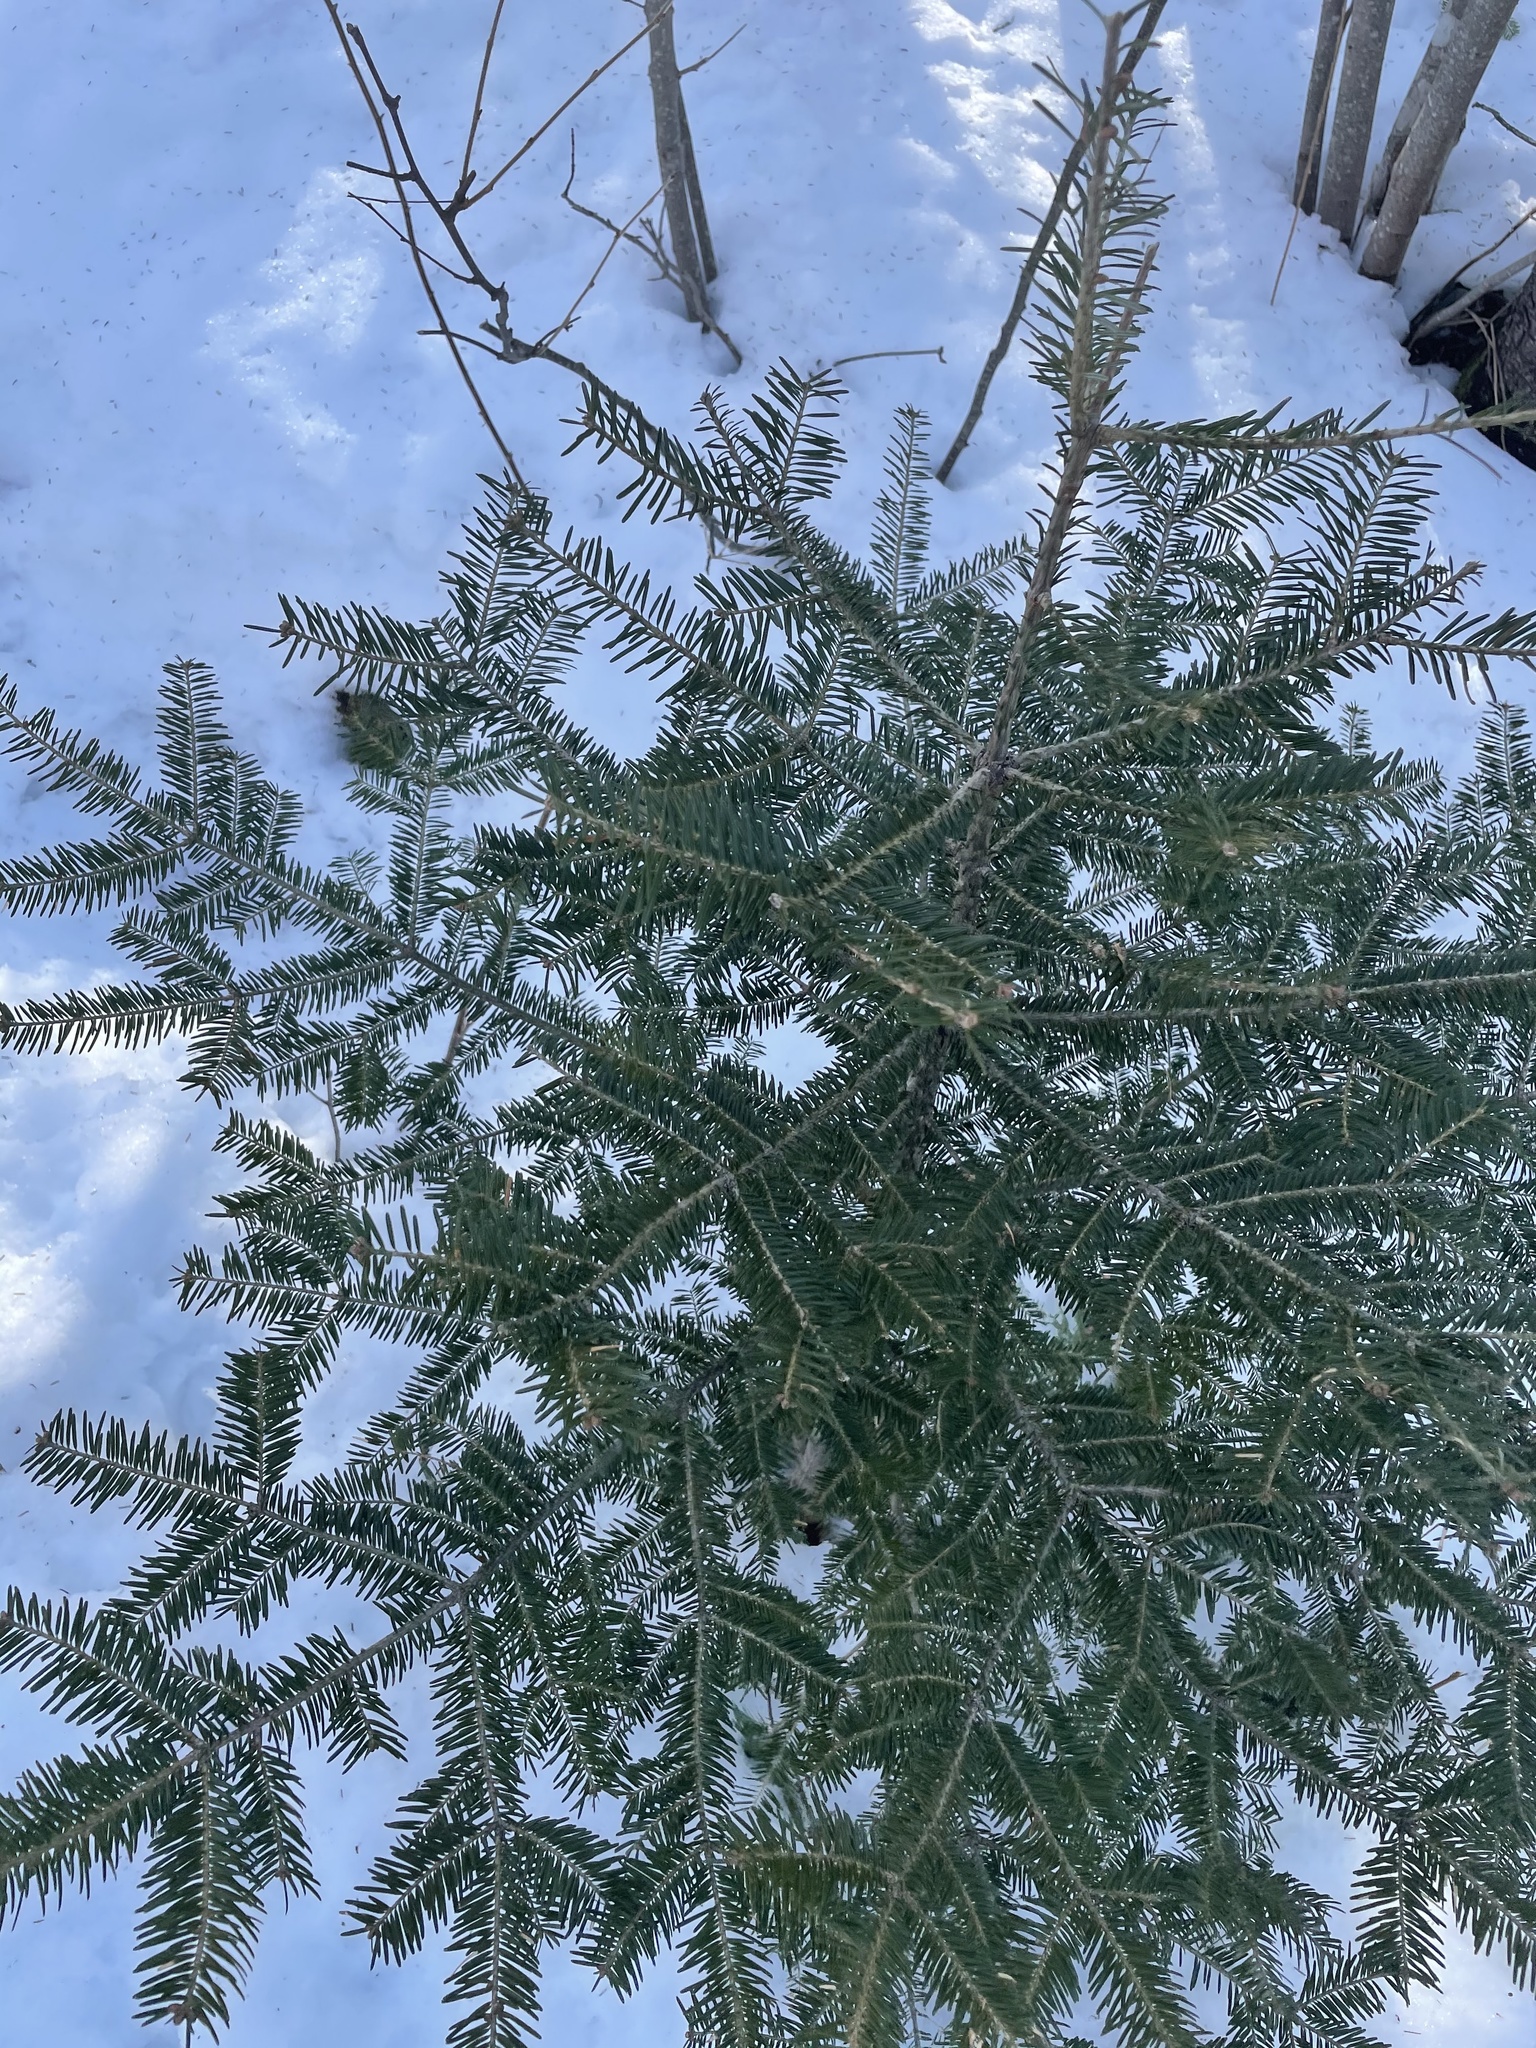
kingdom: Plantae
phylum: Tracheophyta
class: Pinopsida
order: Pinales
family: Pinaceae
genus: Abies
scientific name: Abies balsamea
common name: Balsam fir
